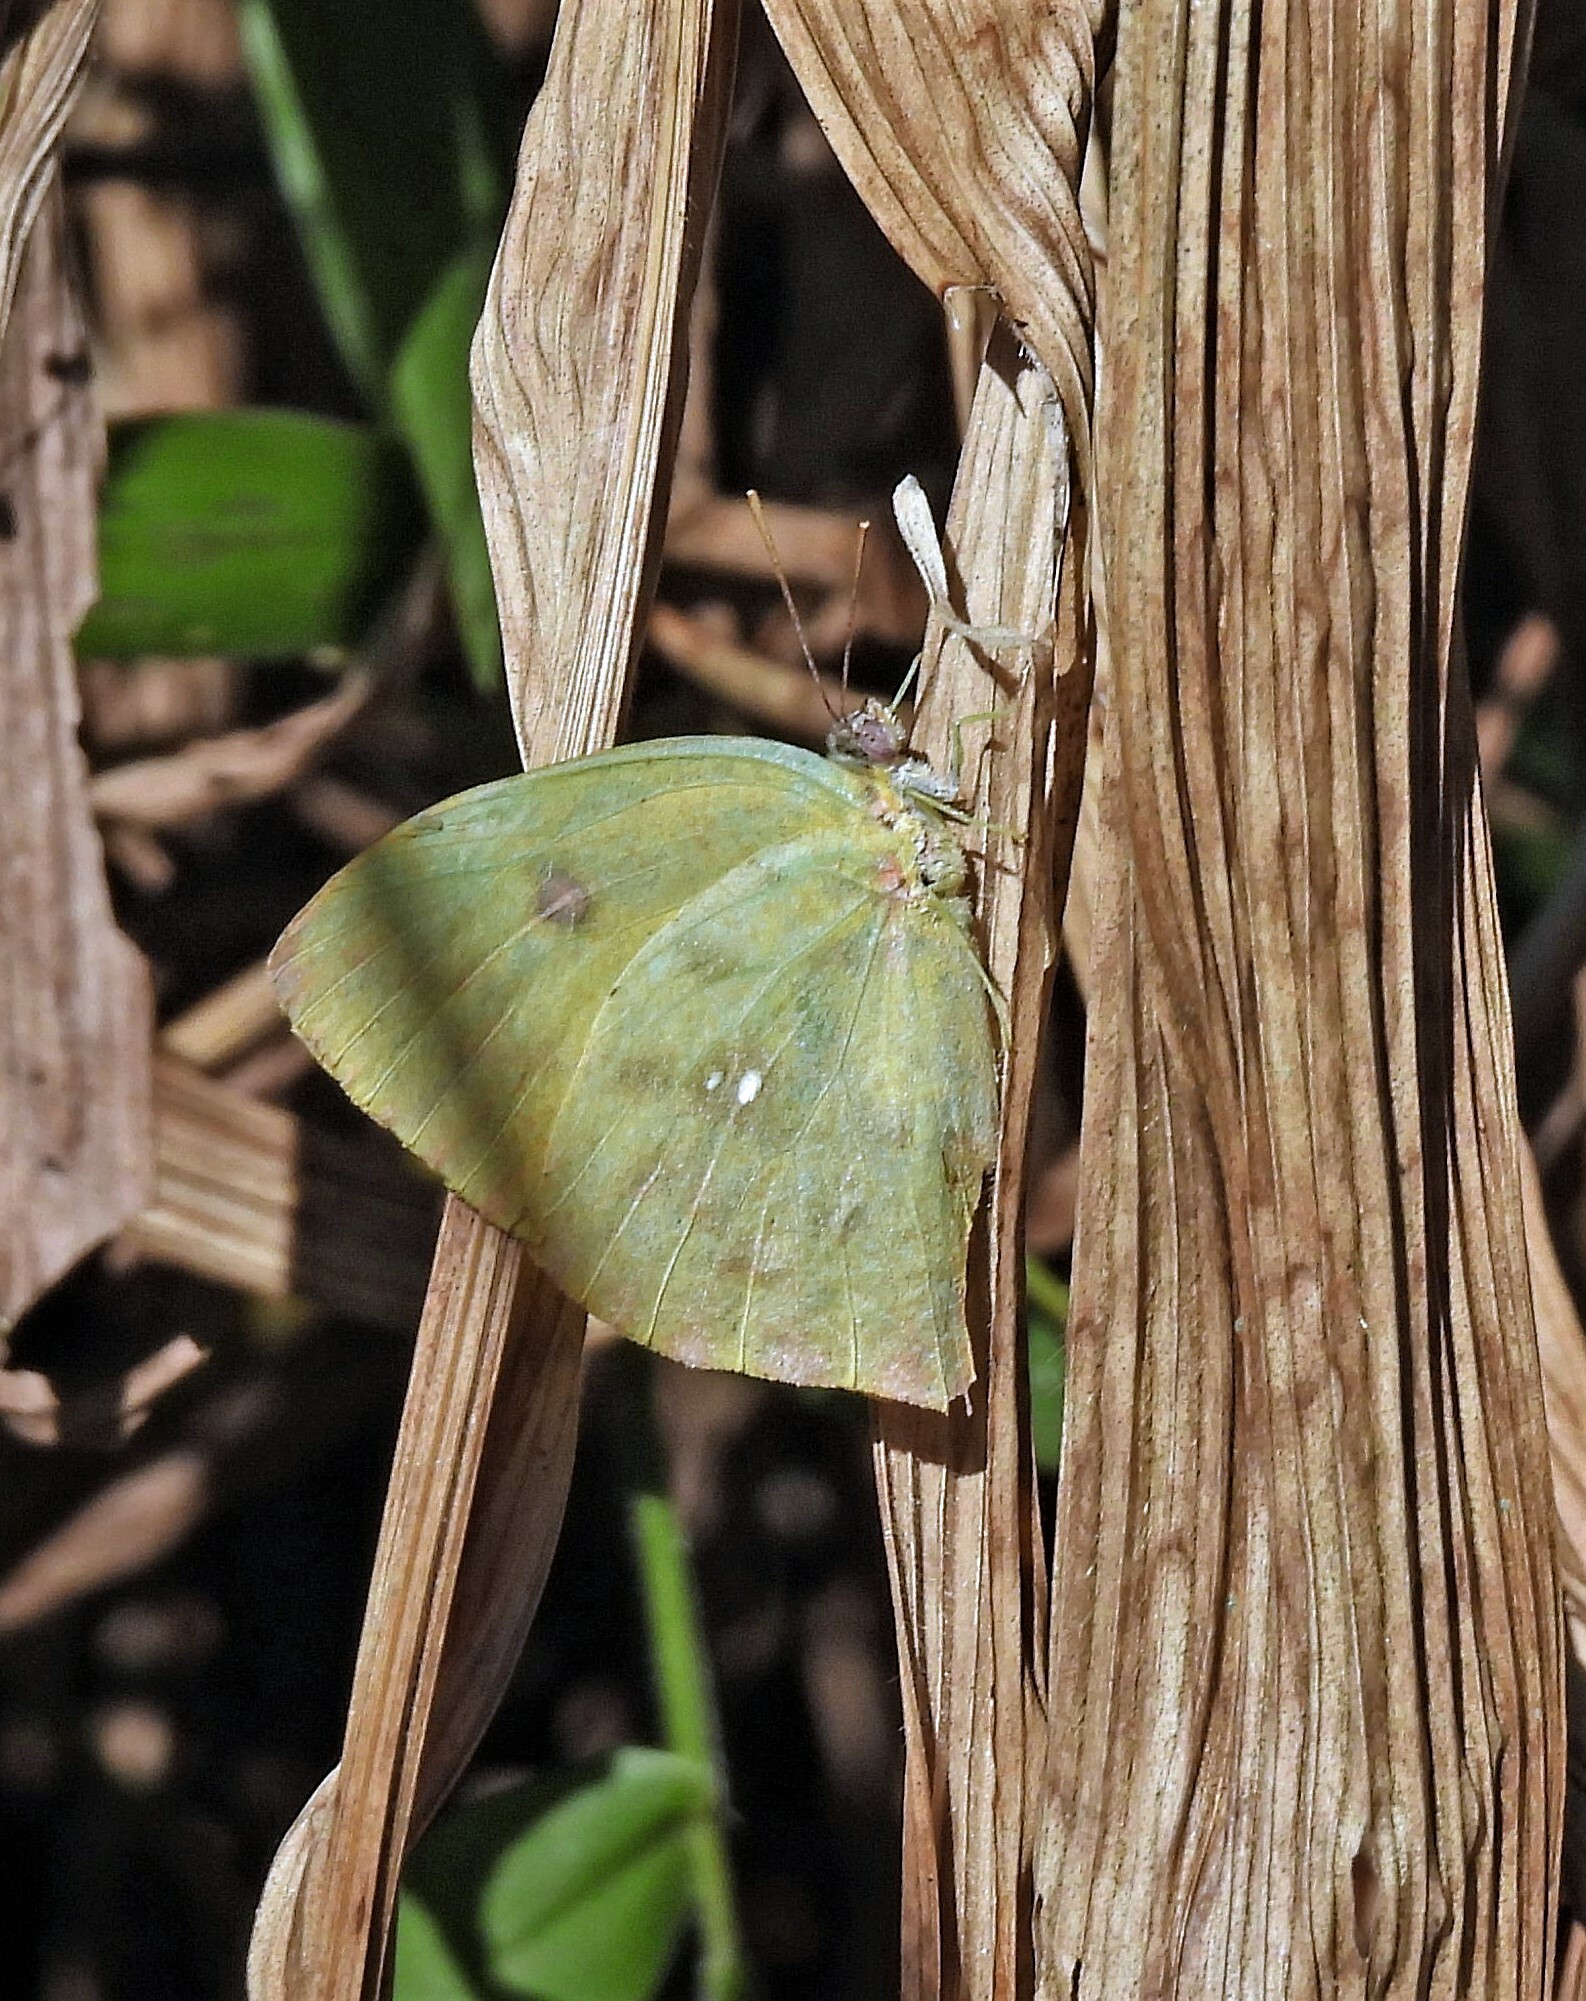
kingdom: Animalia
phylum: Arthropoda
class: Insecta
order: Lepidoptera
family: Pieridae
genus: Phoebis
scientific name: Phoebis neocypris
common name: Tailed sulphur
